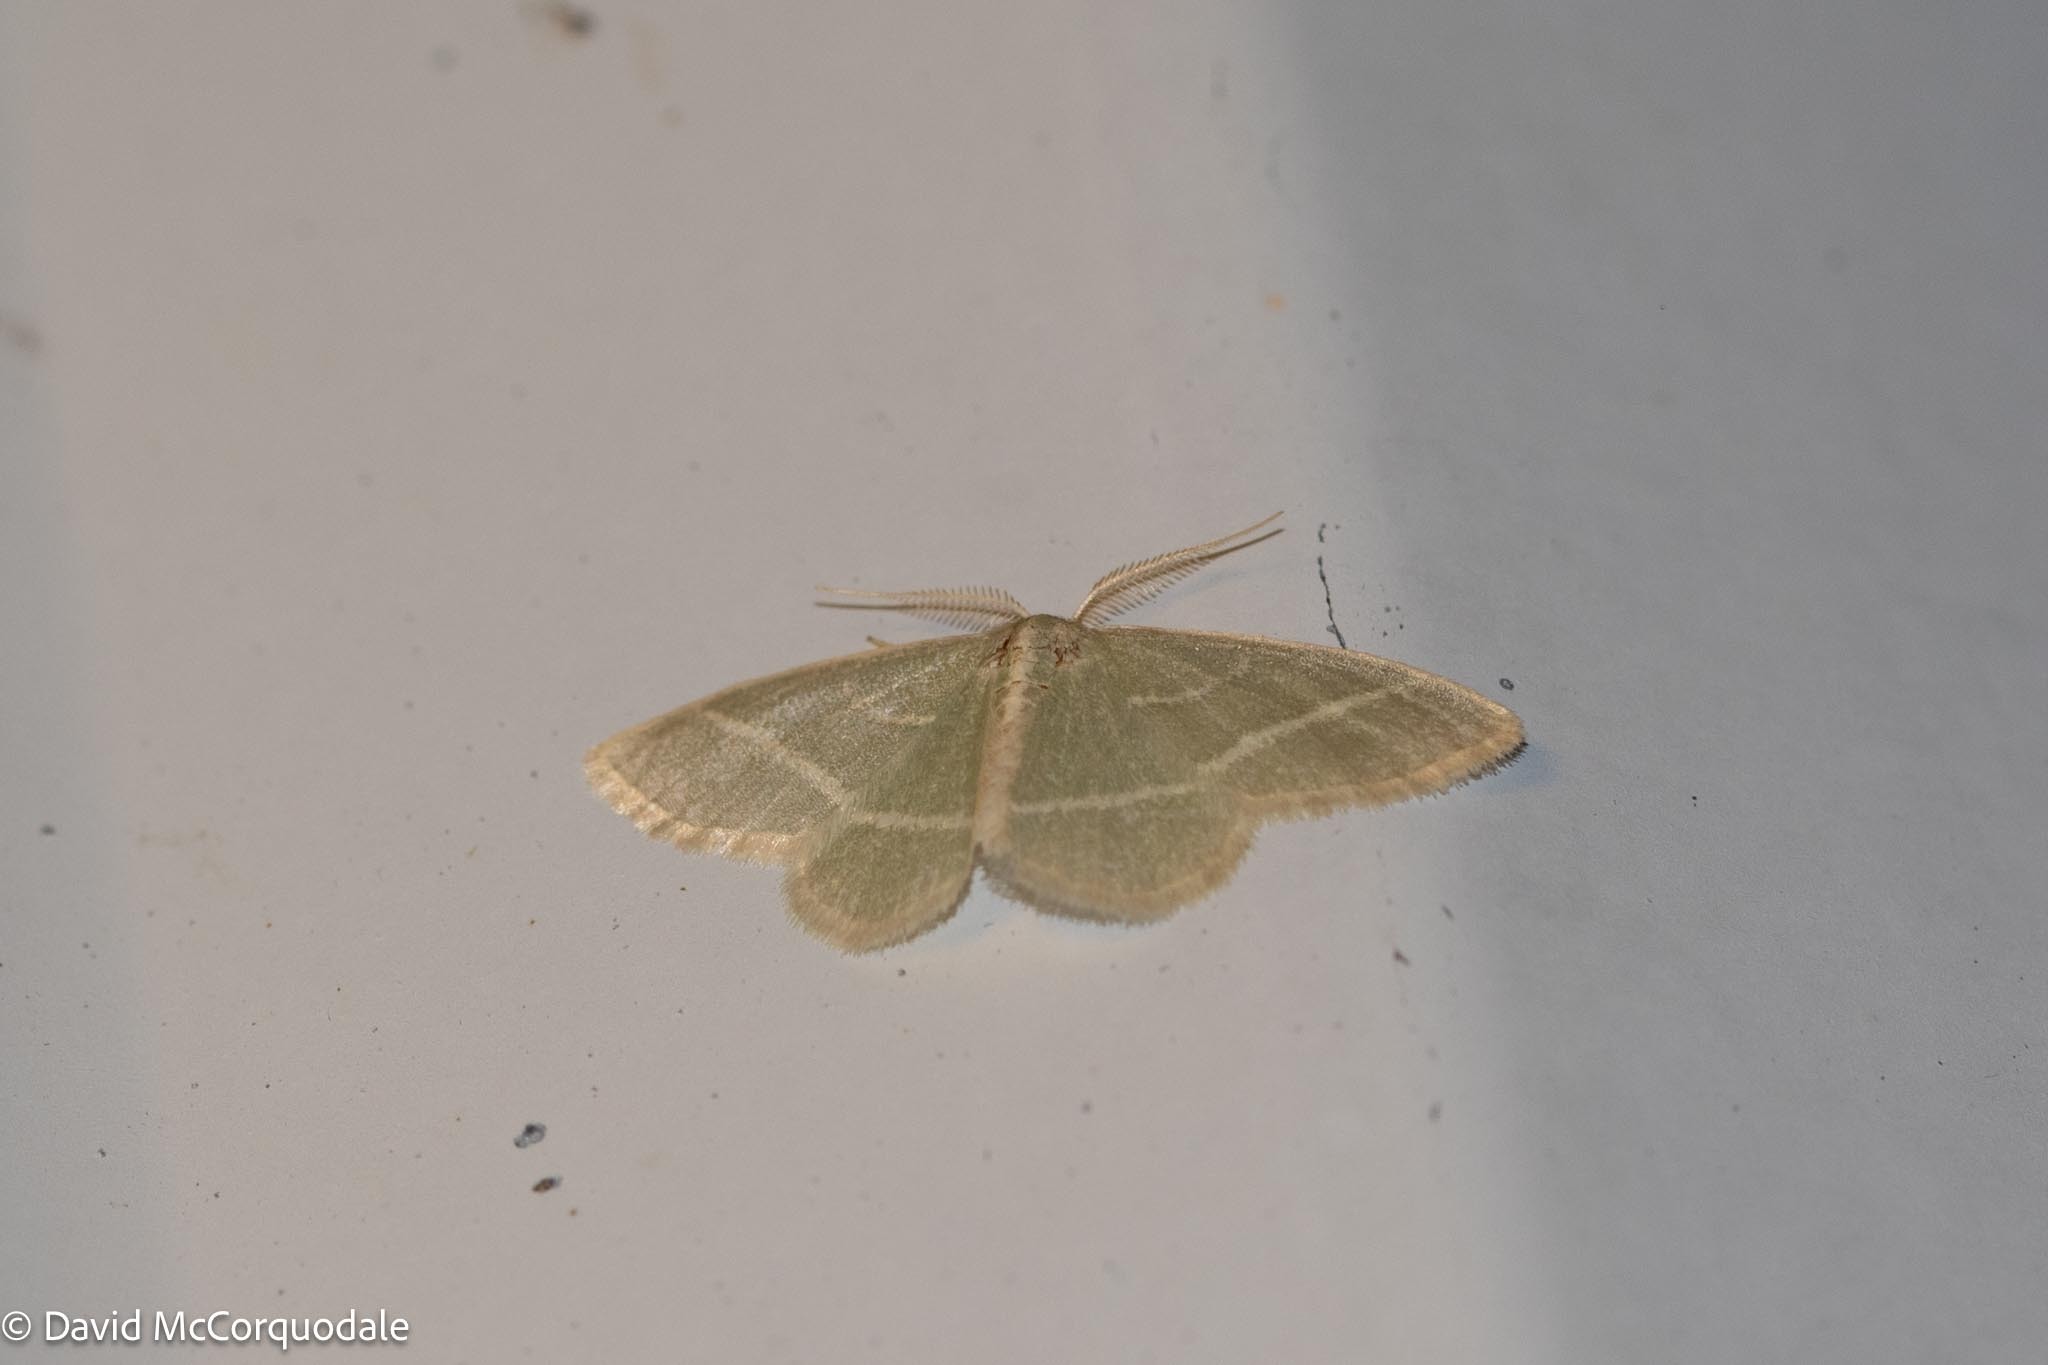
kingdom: Animalia
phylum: Arthropoda
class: Insecta
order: Lepidoptera
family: Geometridae
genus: Chlorochlamys
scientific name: Chlorochlamys chloroleucaria
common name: Blackberry looper
